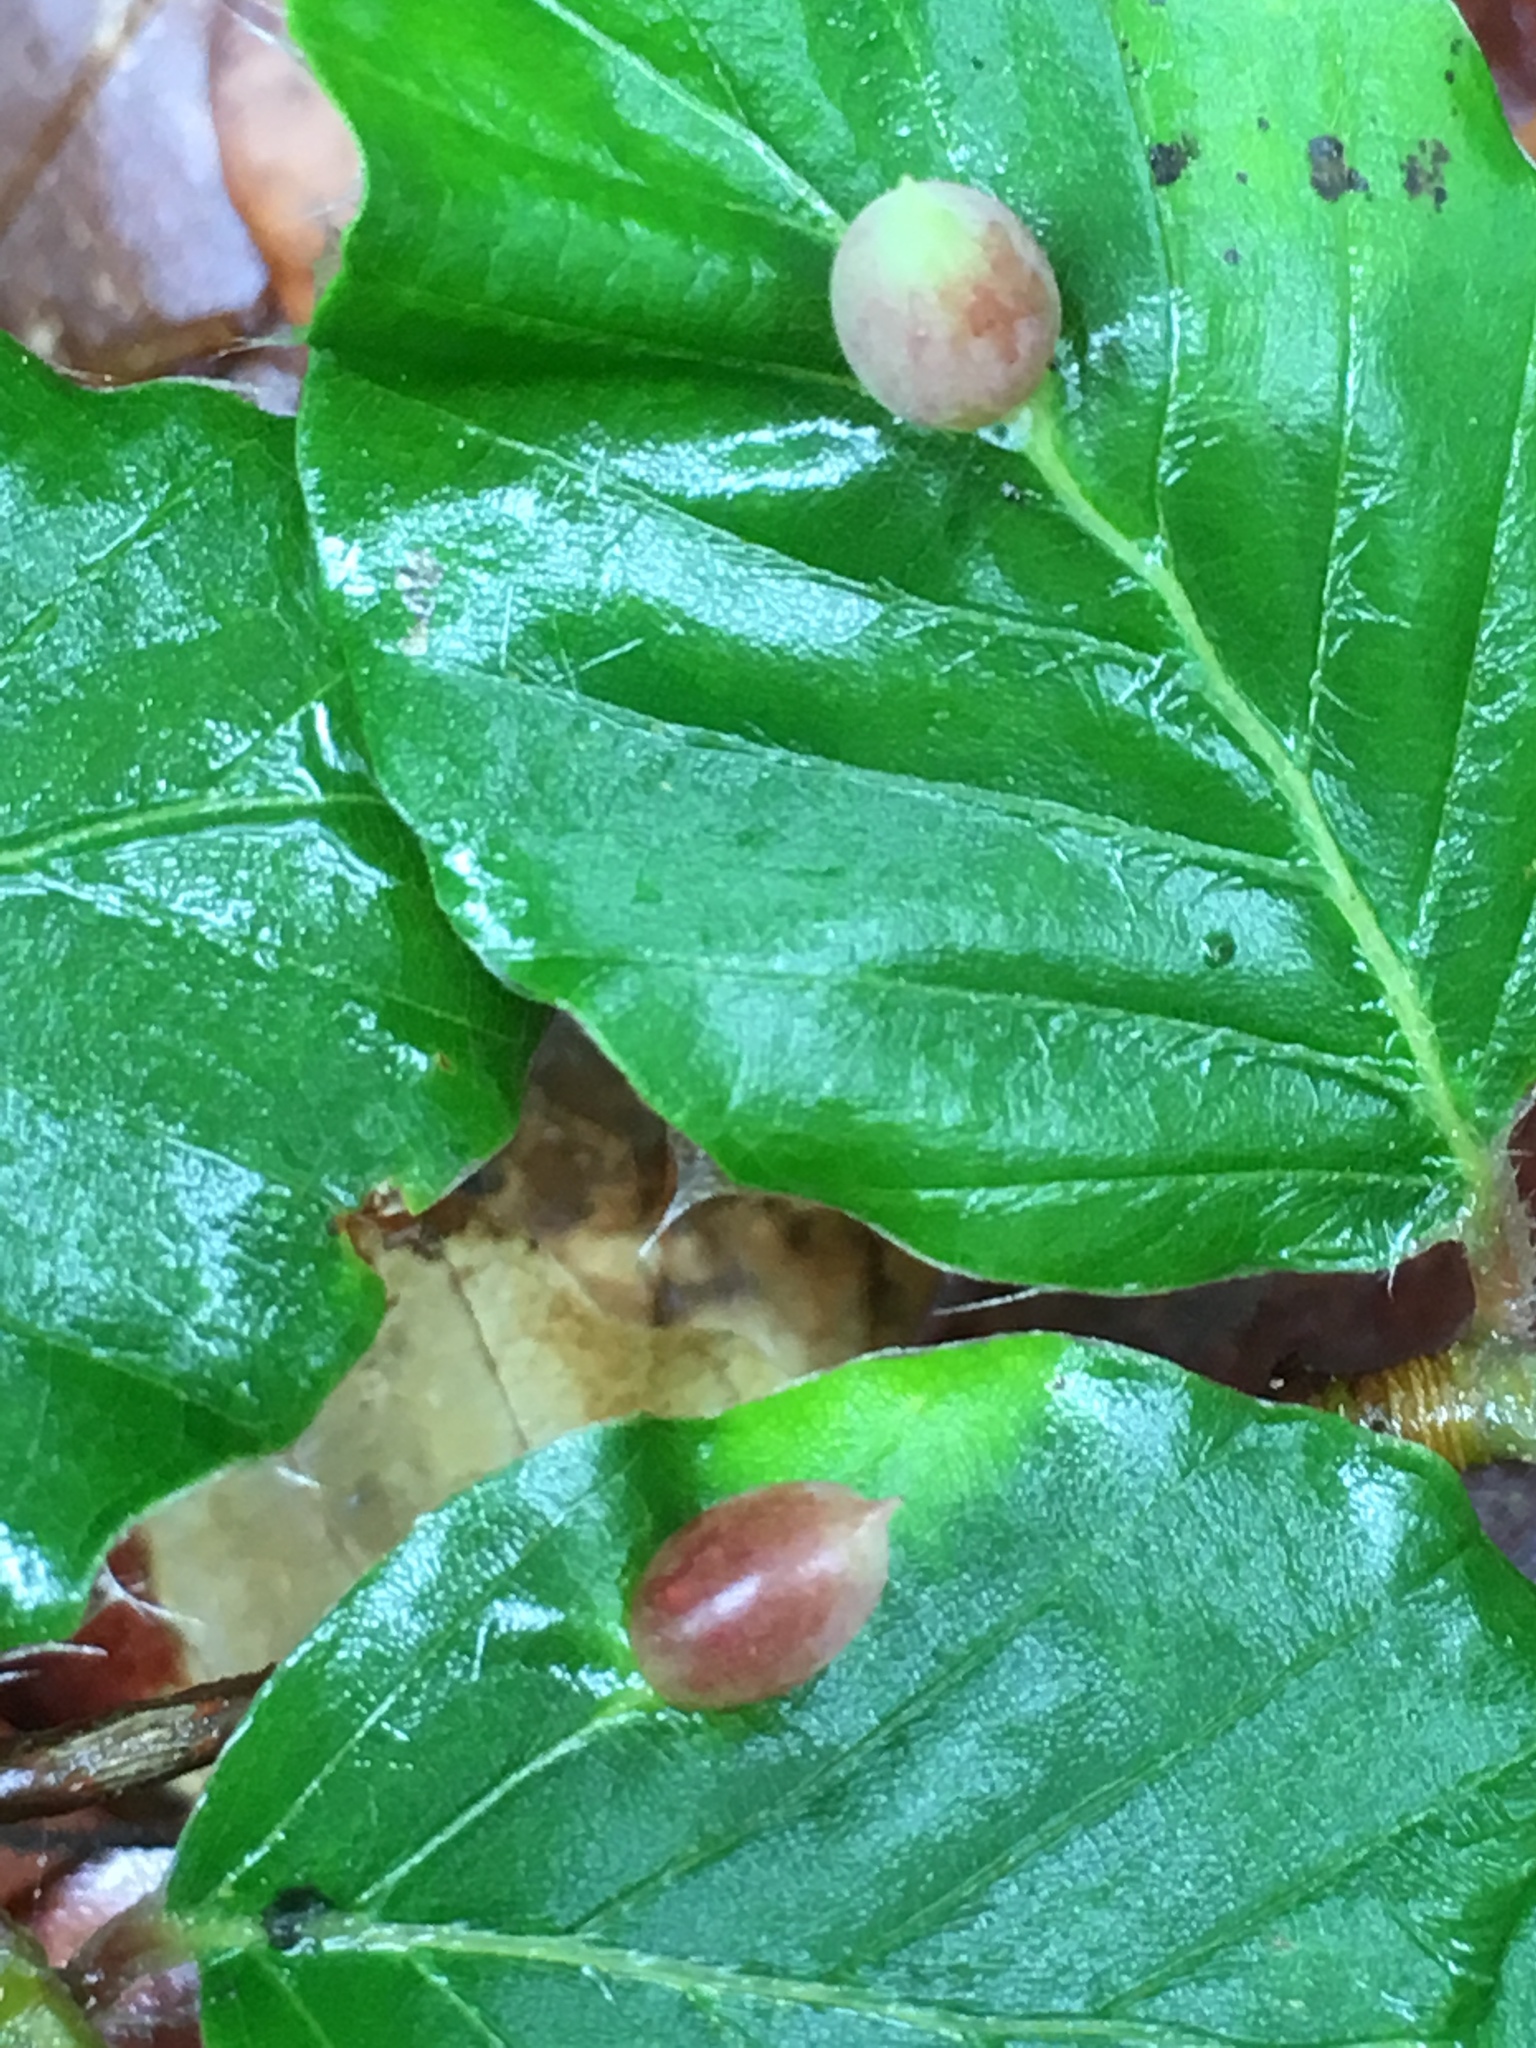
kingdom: Animalia
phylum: Arthropoda
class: Insecta
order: Diptera
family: Cecidomyiidae
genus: Mikiola
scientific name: Mikiola fagi
